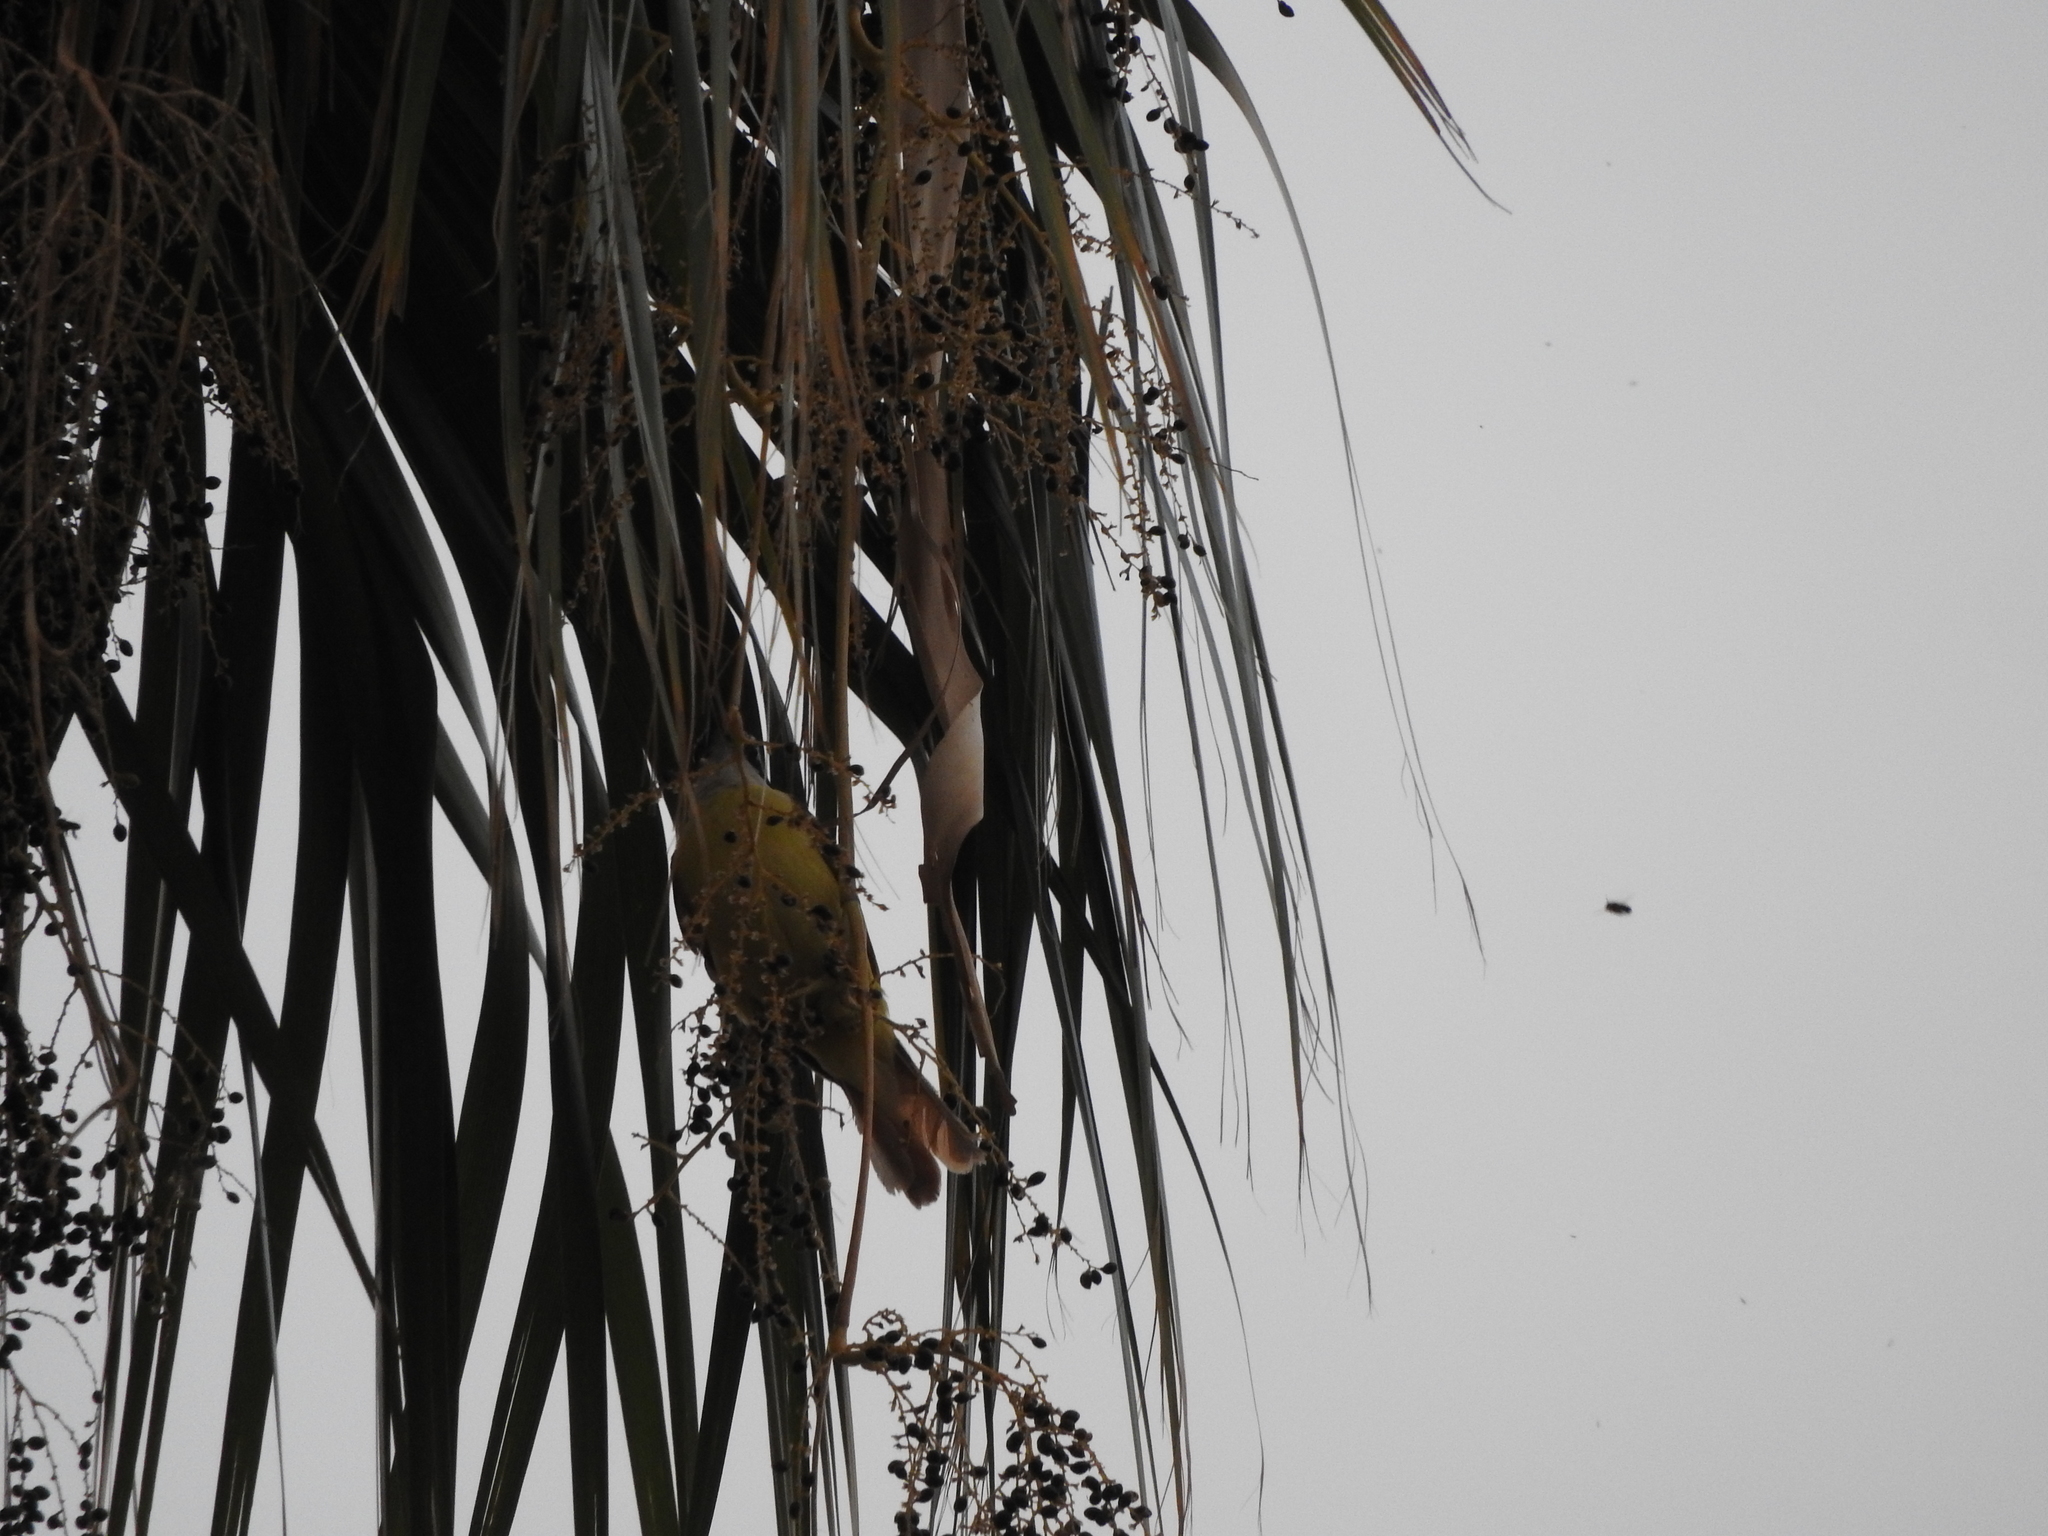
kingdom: Animalia
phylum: Arthropoda
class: Insecta
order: Hymenoptera
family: Apidae
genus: Apis
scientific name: Apis mellifera
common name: Honey bee
